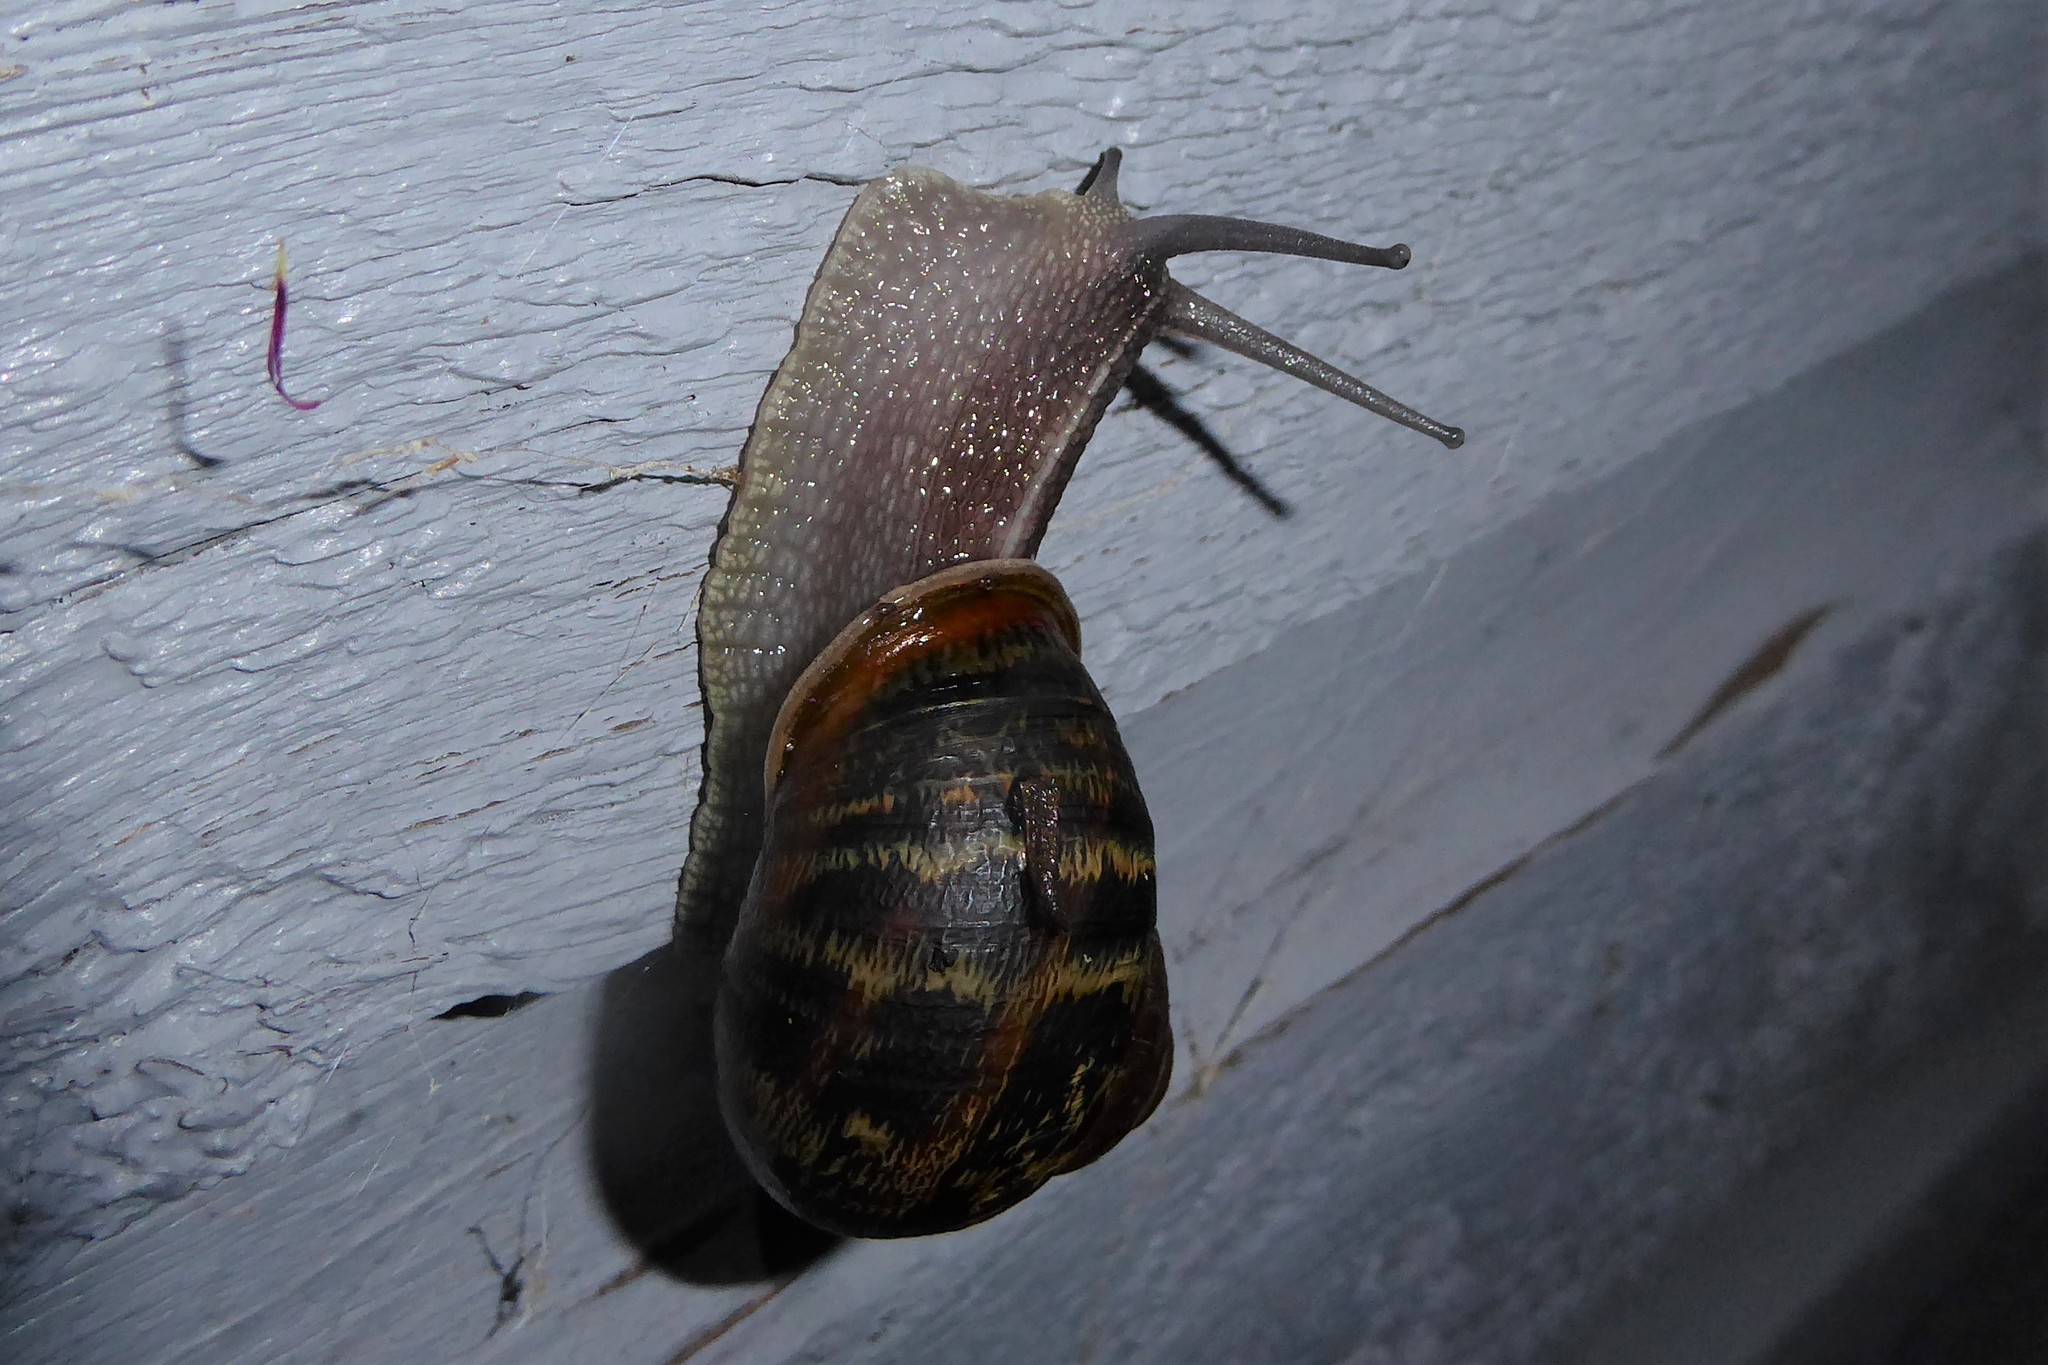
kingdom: Animalia
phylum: Mollusca
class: Gastropoda
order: Stylommatophora
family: Helicidae
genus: Cornu
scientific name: Cornu aspersum
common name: Brown garden snail
